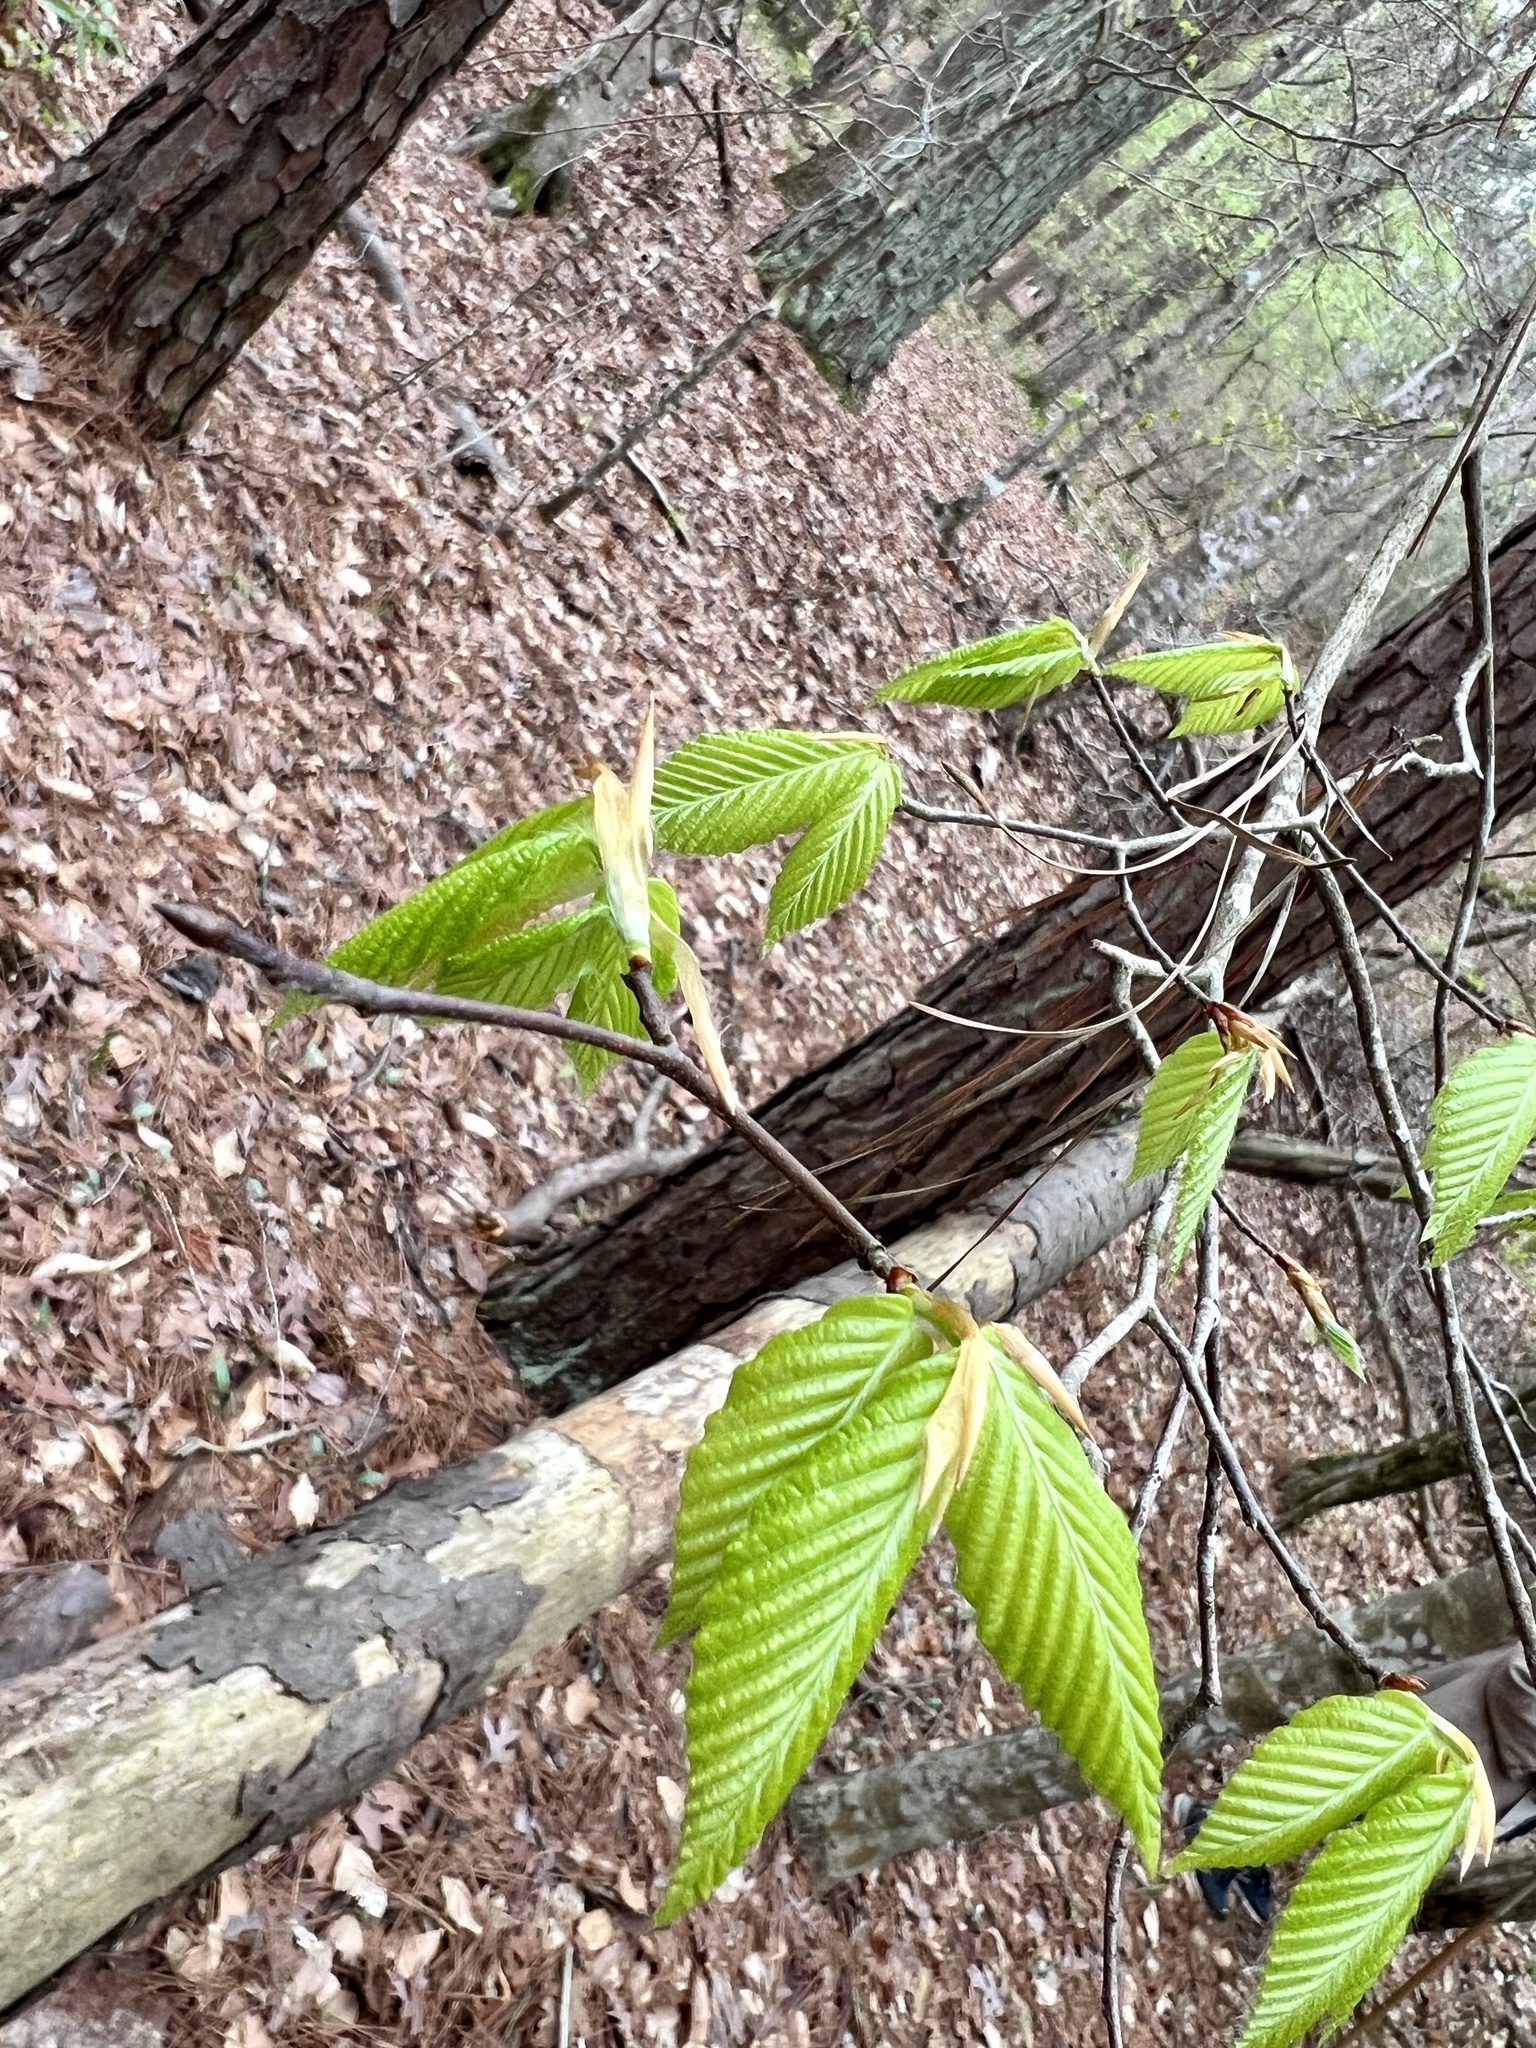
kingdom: Plantae
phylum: Tracheophyta
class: Magnoliopsida
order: Fagales
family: Fagaceae
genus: Fagus
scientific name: Fagus grandifolia
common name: American beech
